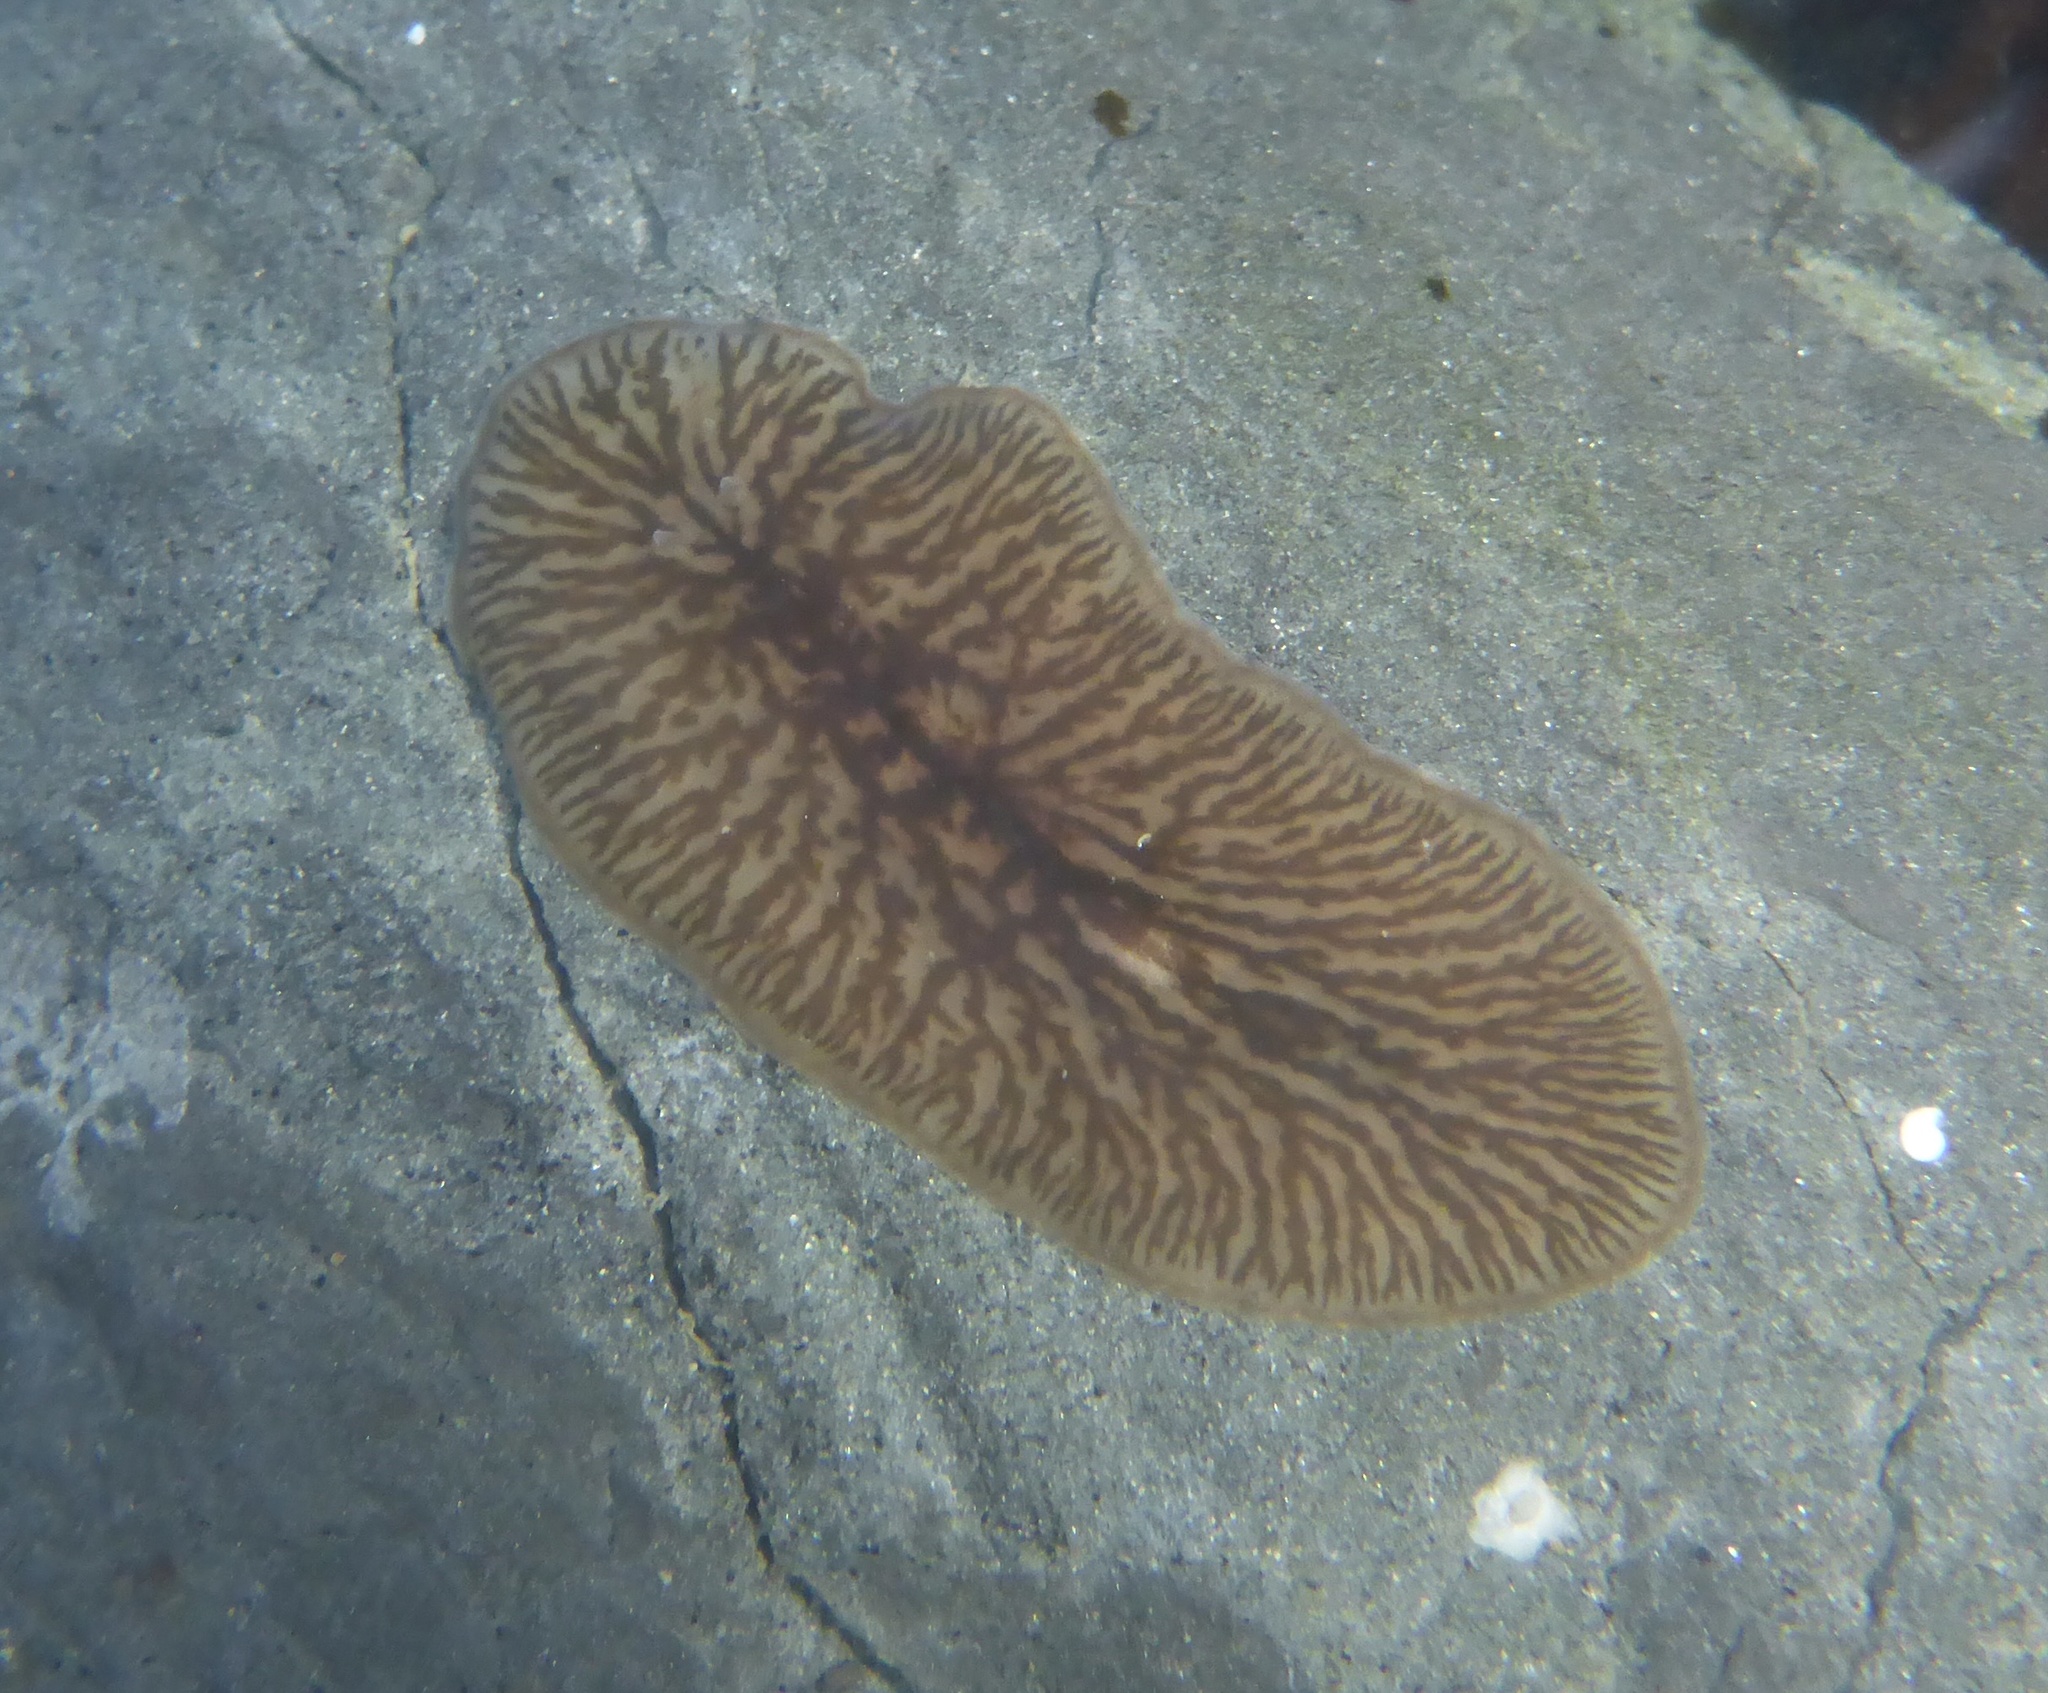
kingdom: Animalia
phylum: Platyhelminthes
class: Turbellaria
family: Cryptocelidae
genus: Hylocelis
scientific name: Hylocelis californica
